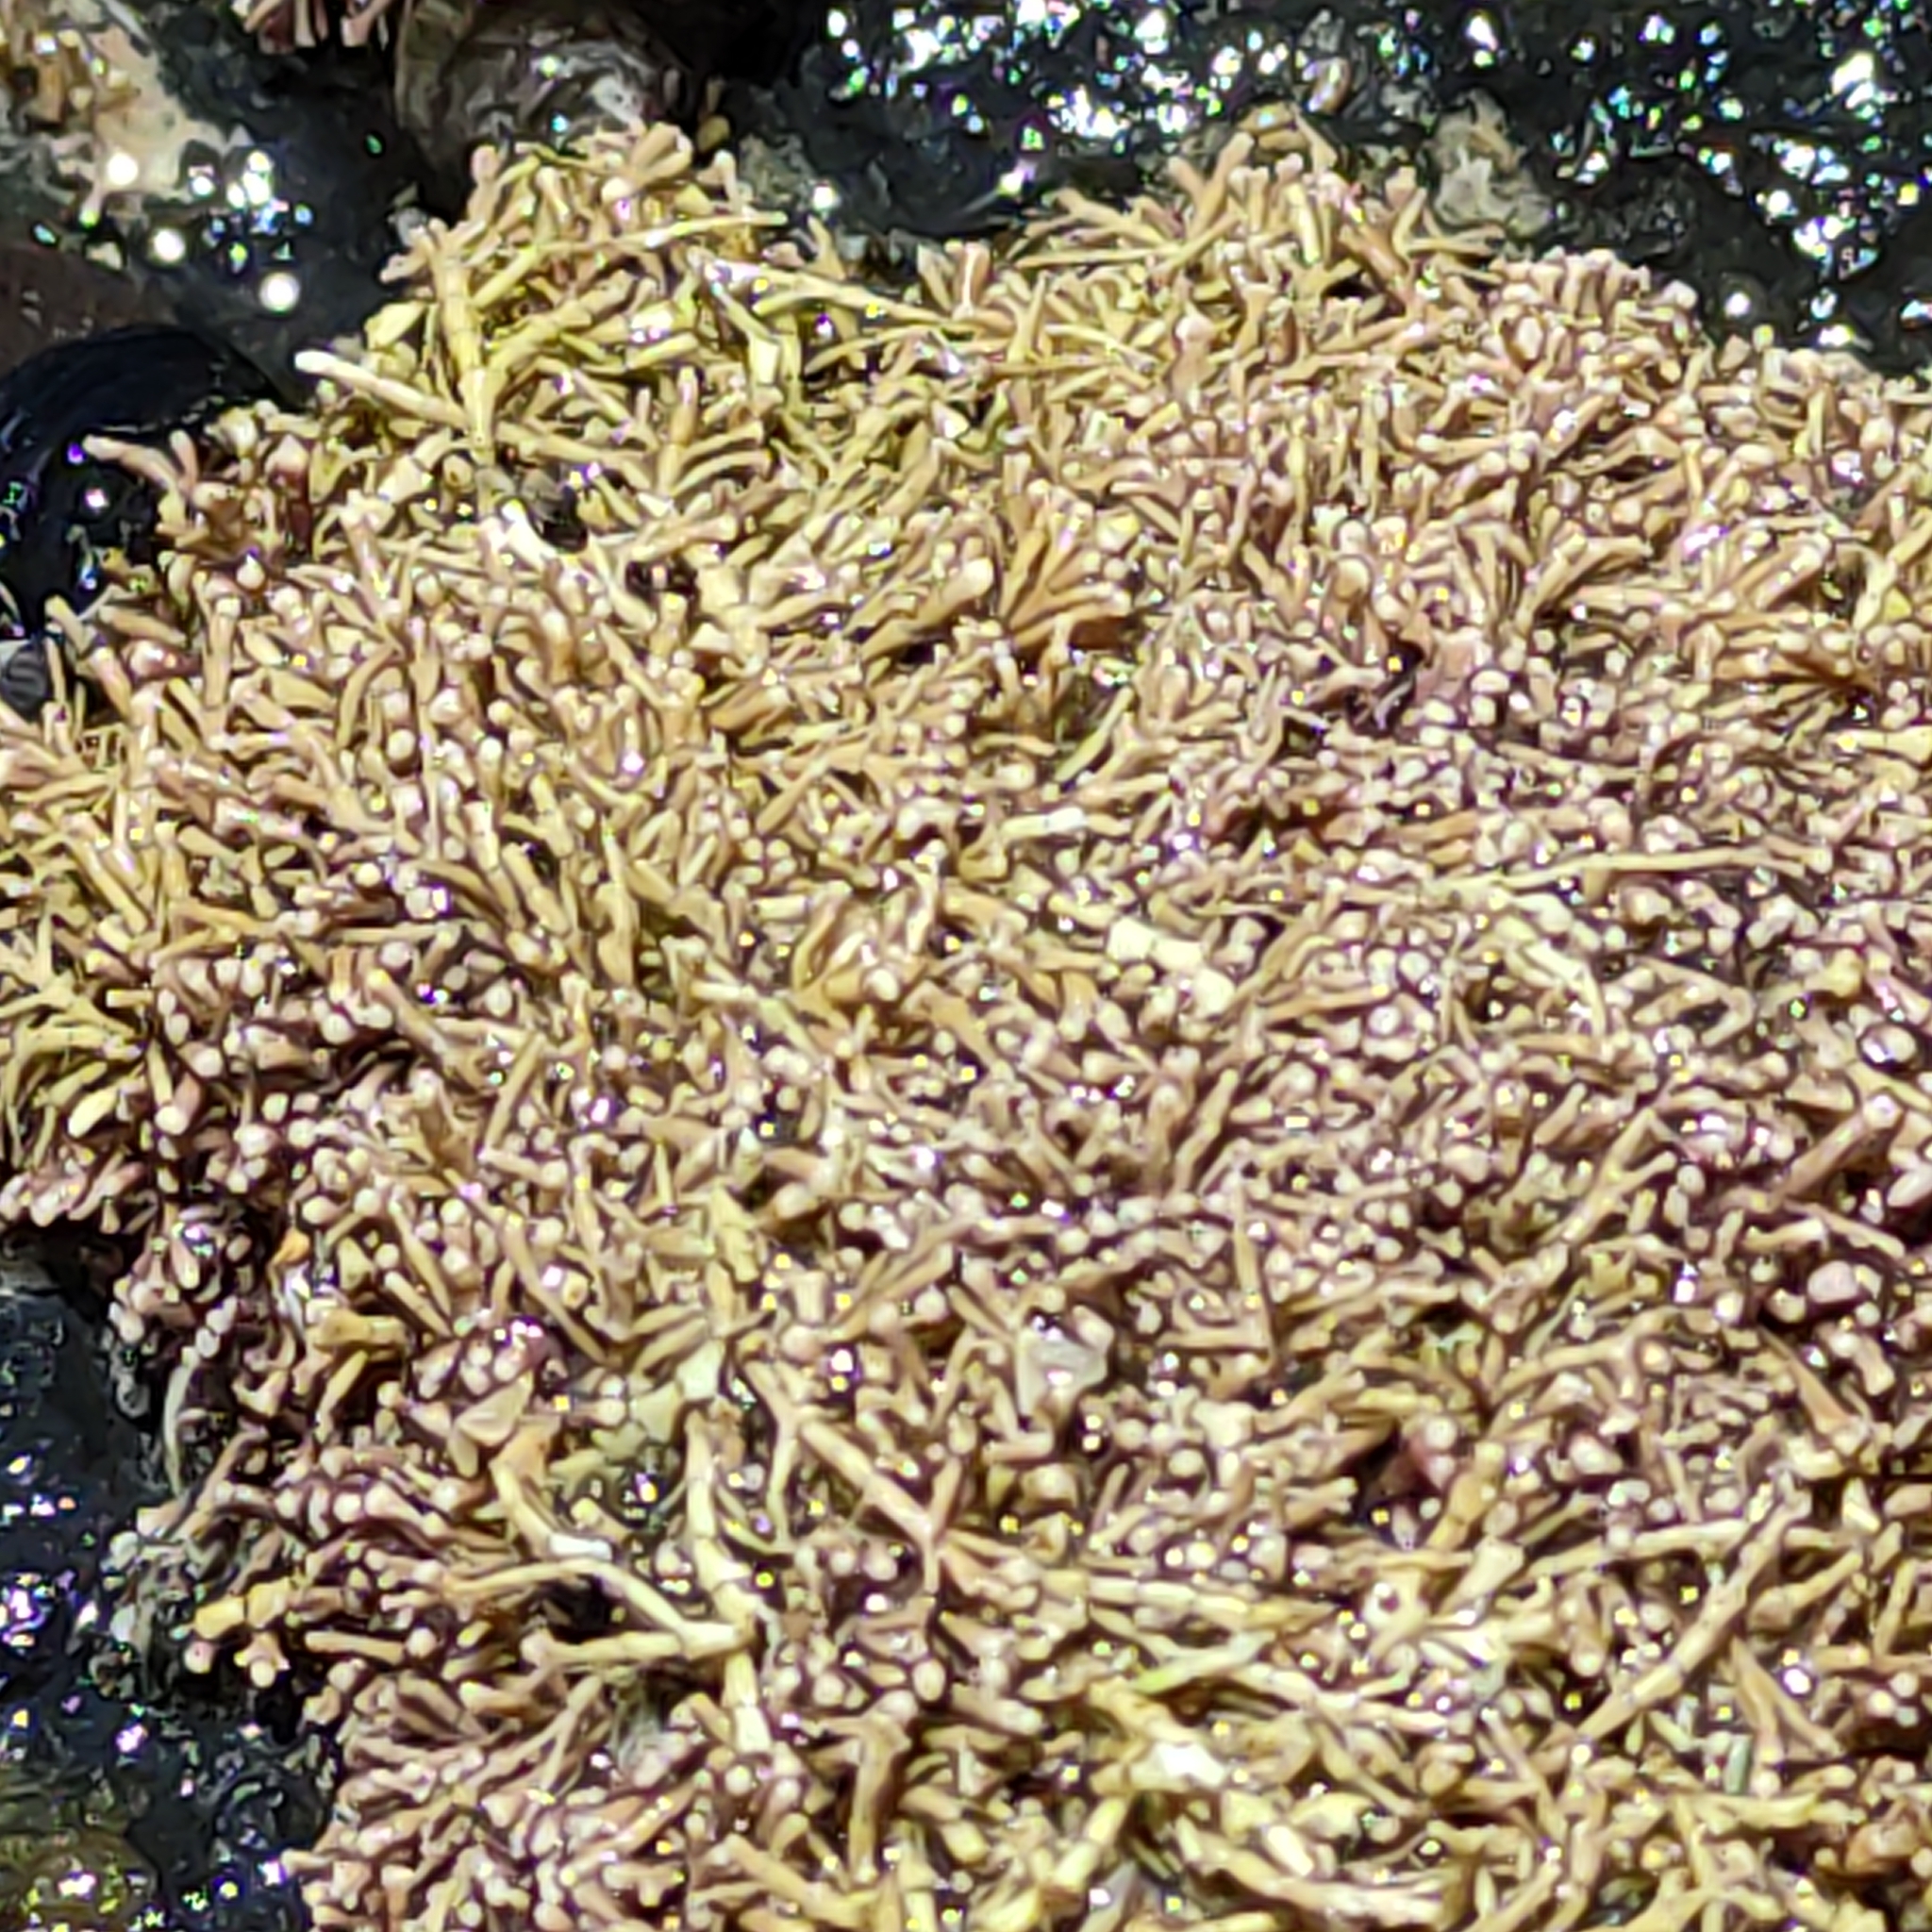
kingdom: Plantae
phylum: Rhodophyta
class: Florideophyceae
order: Corallinales
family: Corallinaceae
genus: Corallina
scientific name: Corallina officinalis
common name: Coral weed
